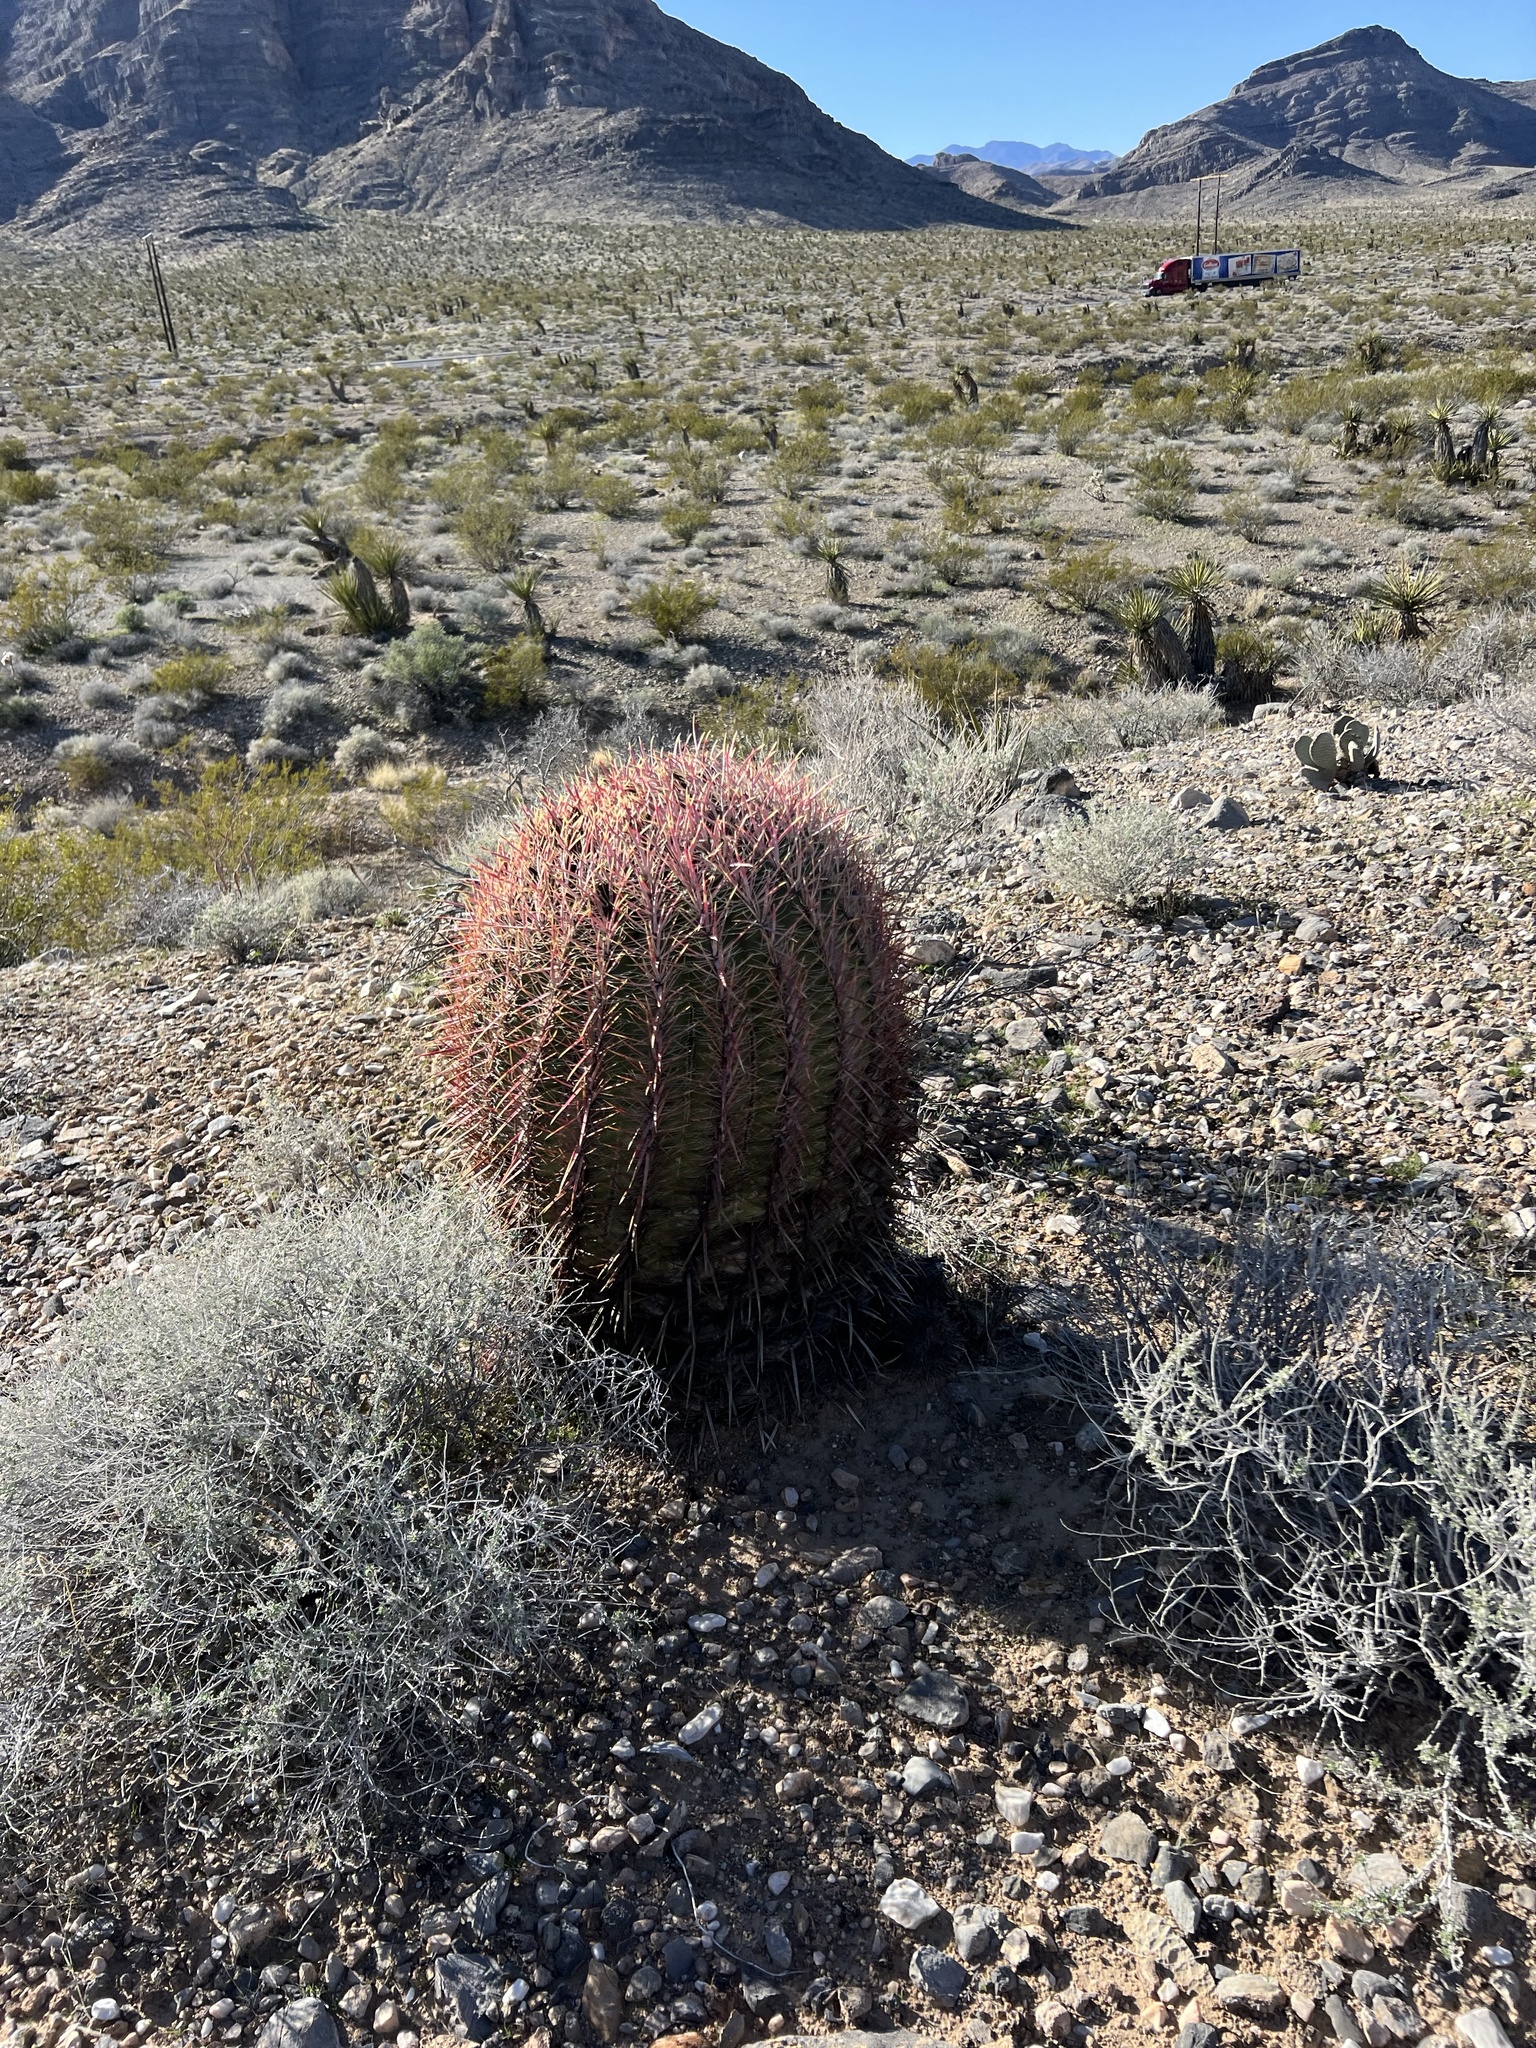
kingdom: Plantae
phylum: Tracheophyta
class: Magnoliopsida
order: Caryophyllales
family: Cactaceae
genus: Ferocactus
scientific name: Ferocactus cylindraceus
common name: California barrel cactus
